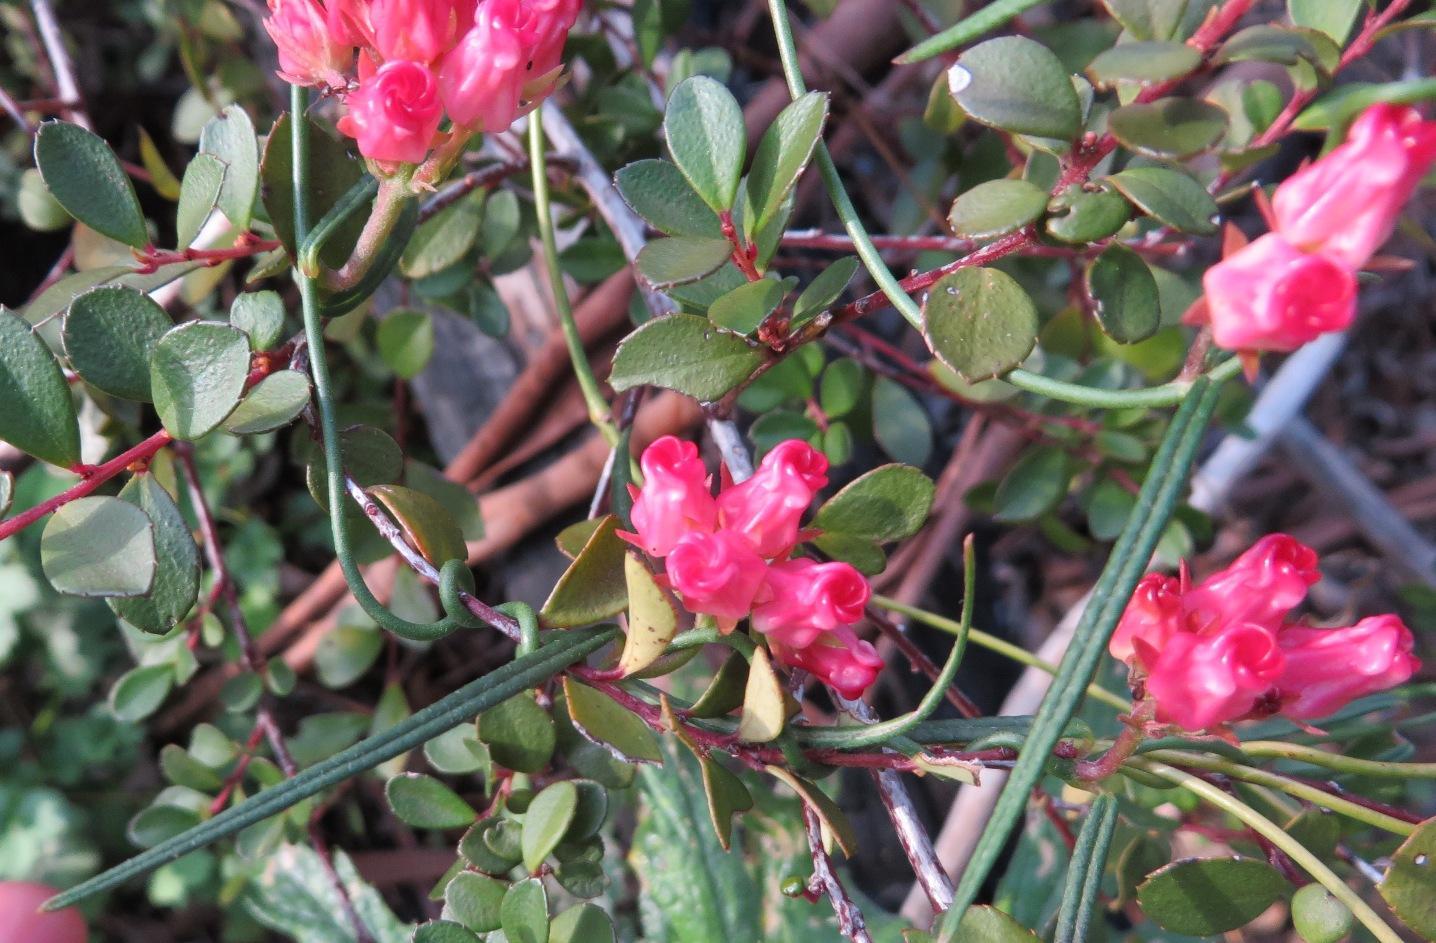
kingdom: Plantae
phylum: Tracheophyta
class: Magnoliopsida
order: Gentianales
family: Apocynaceae
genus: Microloma
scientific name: Microloma tenuifolium
